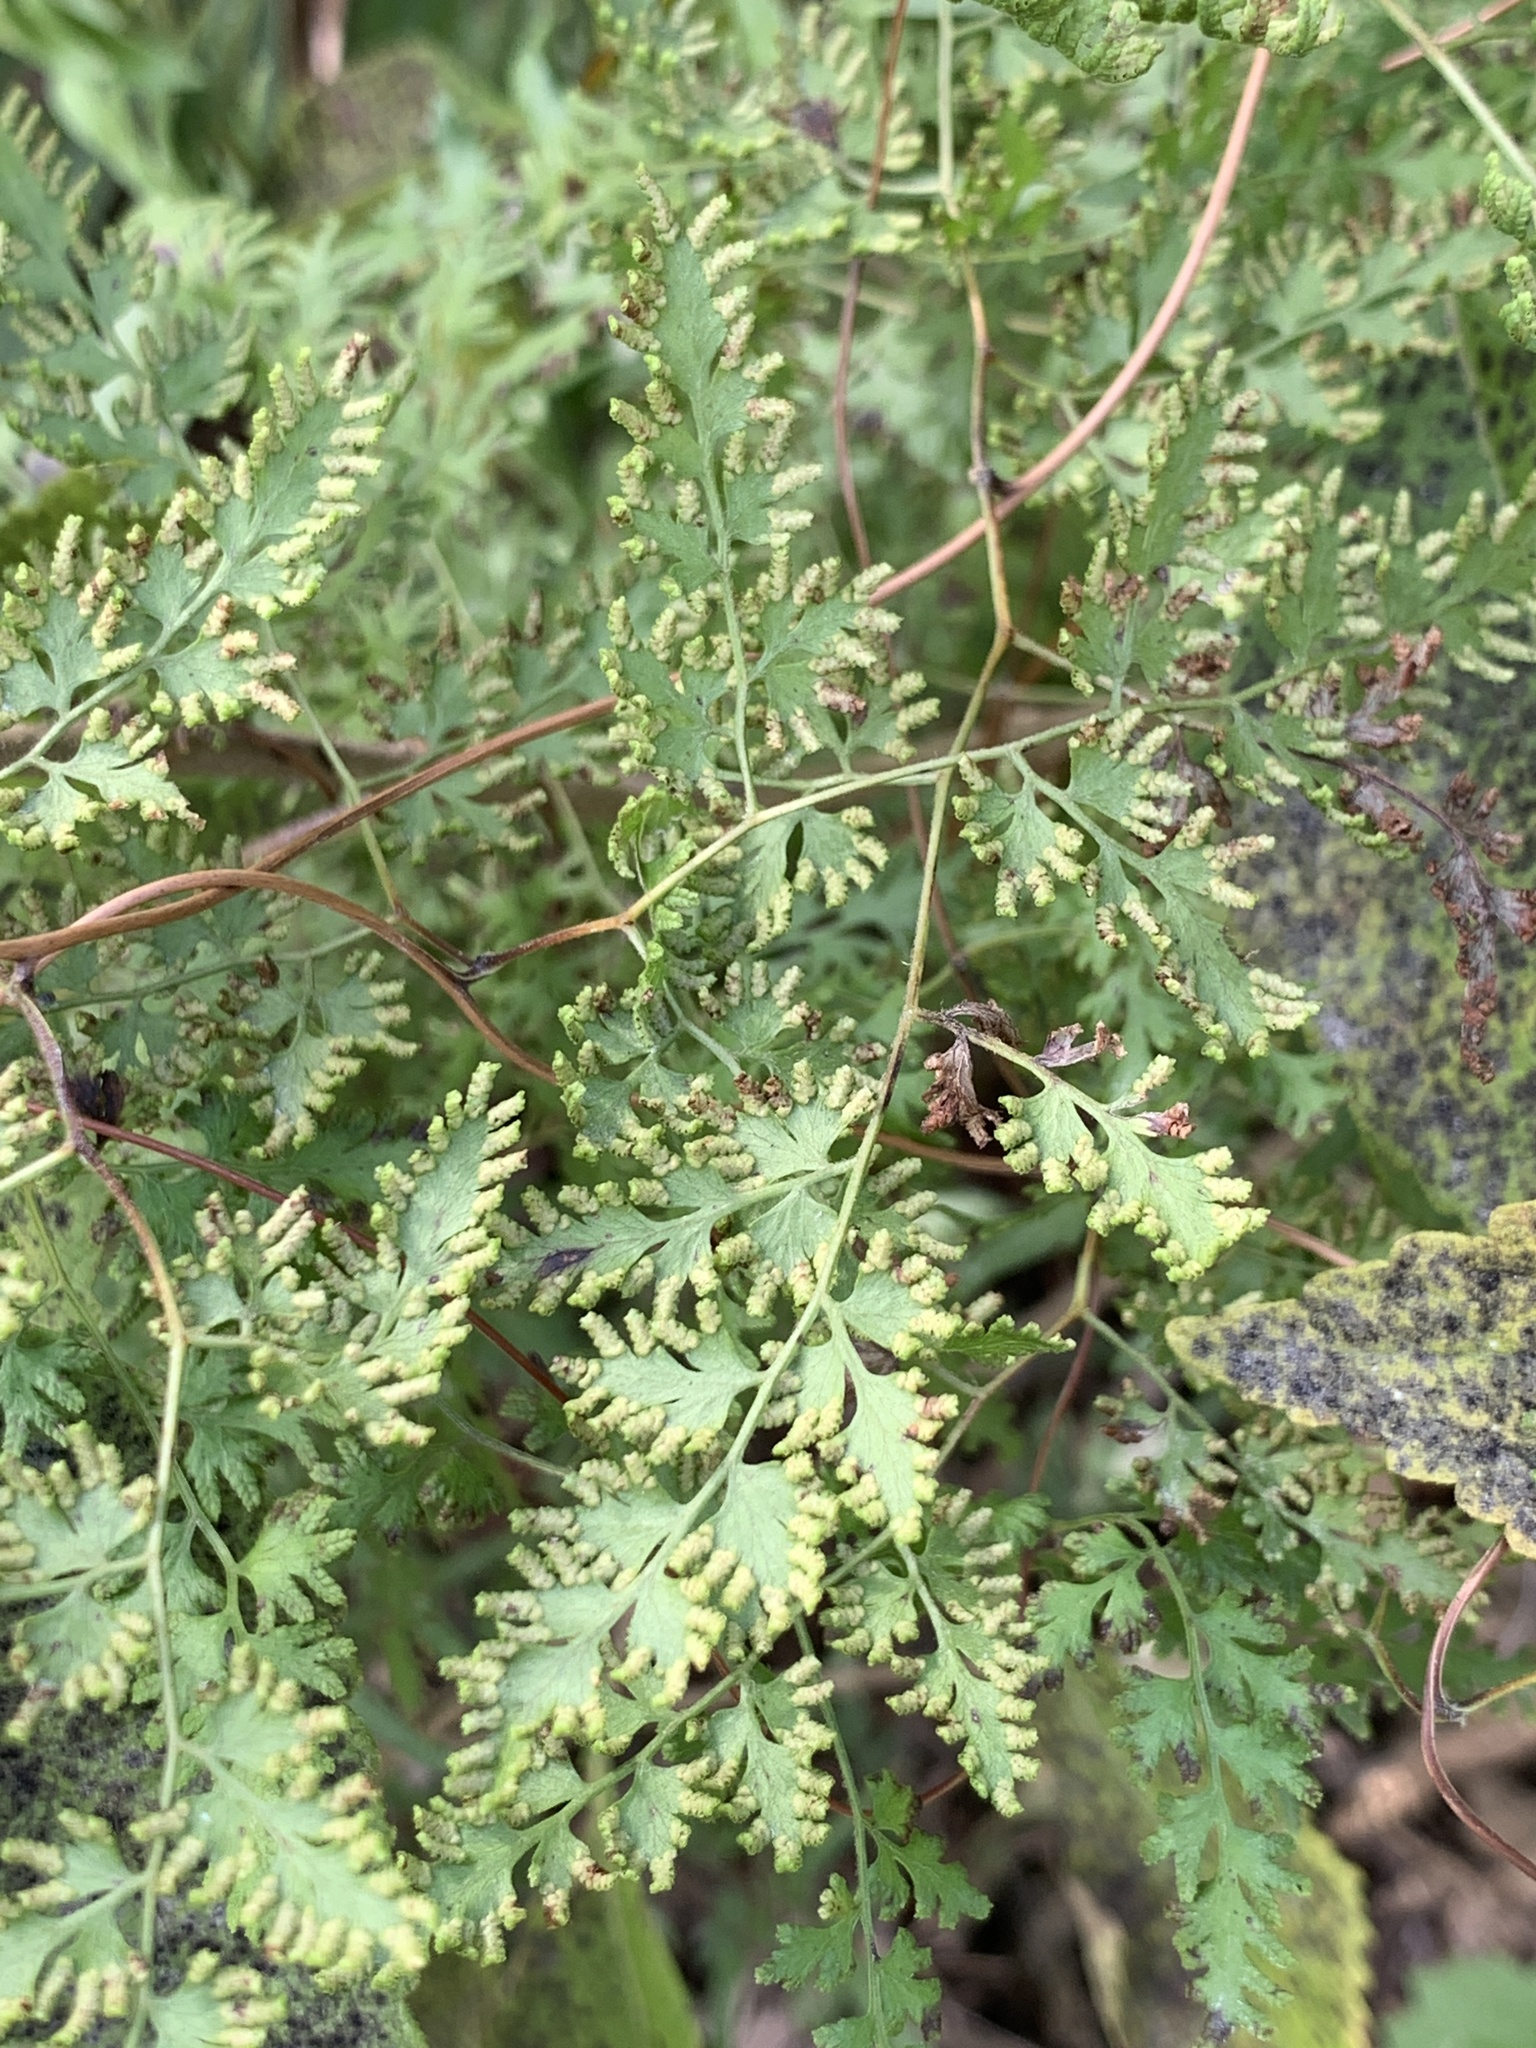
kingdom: Plantae
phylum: Tracheophyta
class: Polypodiopsida
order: Schizaeales
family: Lygodiaceae
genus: Lygodium
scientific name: Lygodium japonicum
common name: Japanese climbing fern
